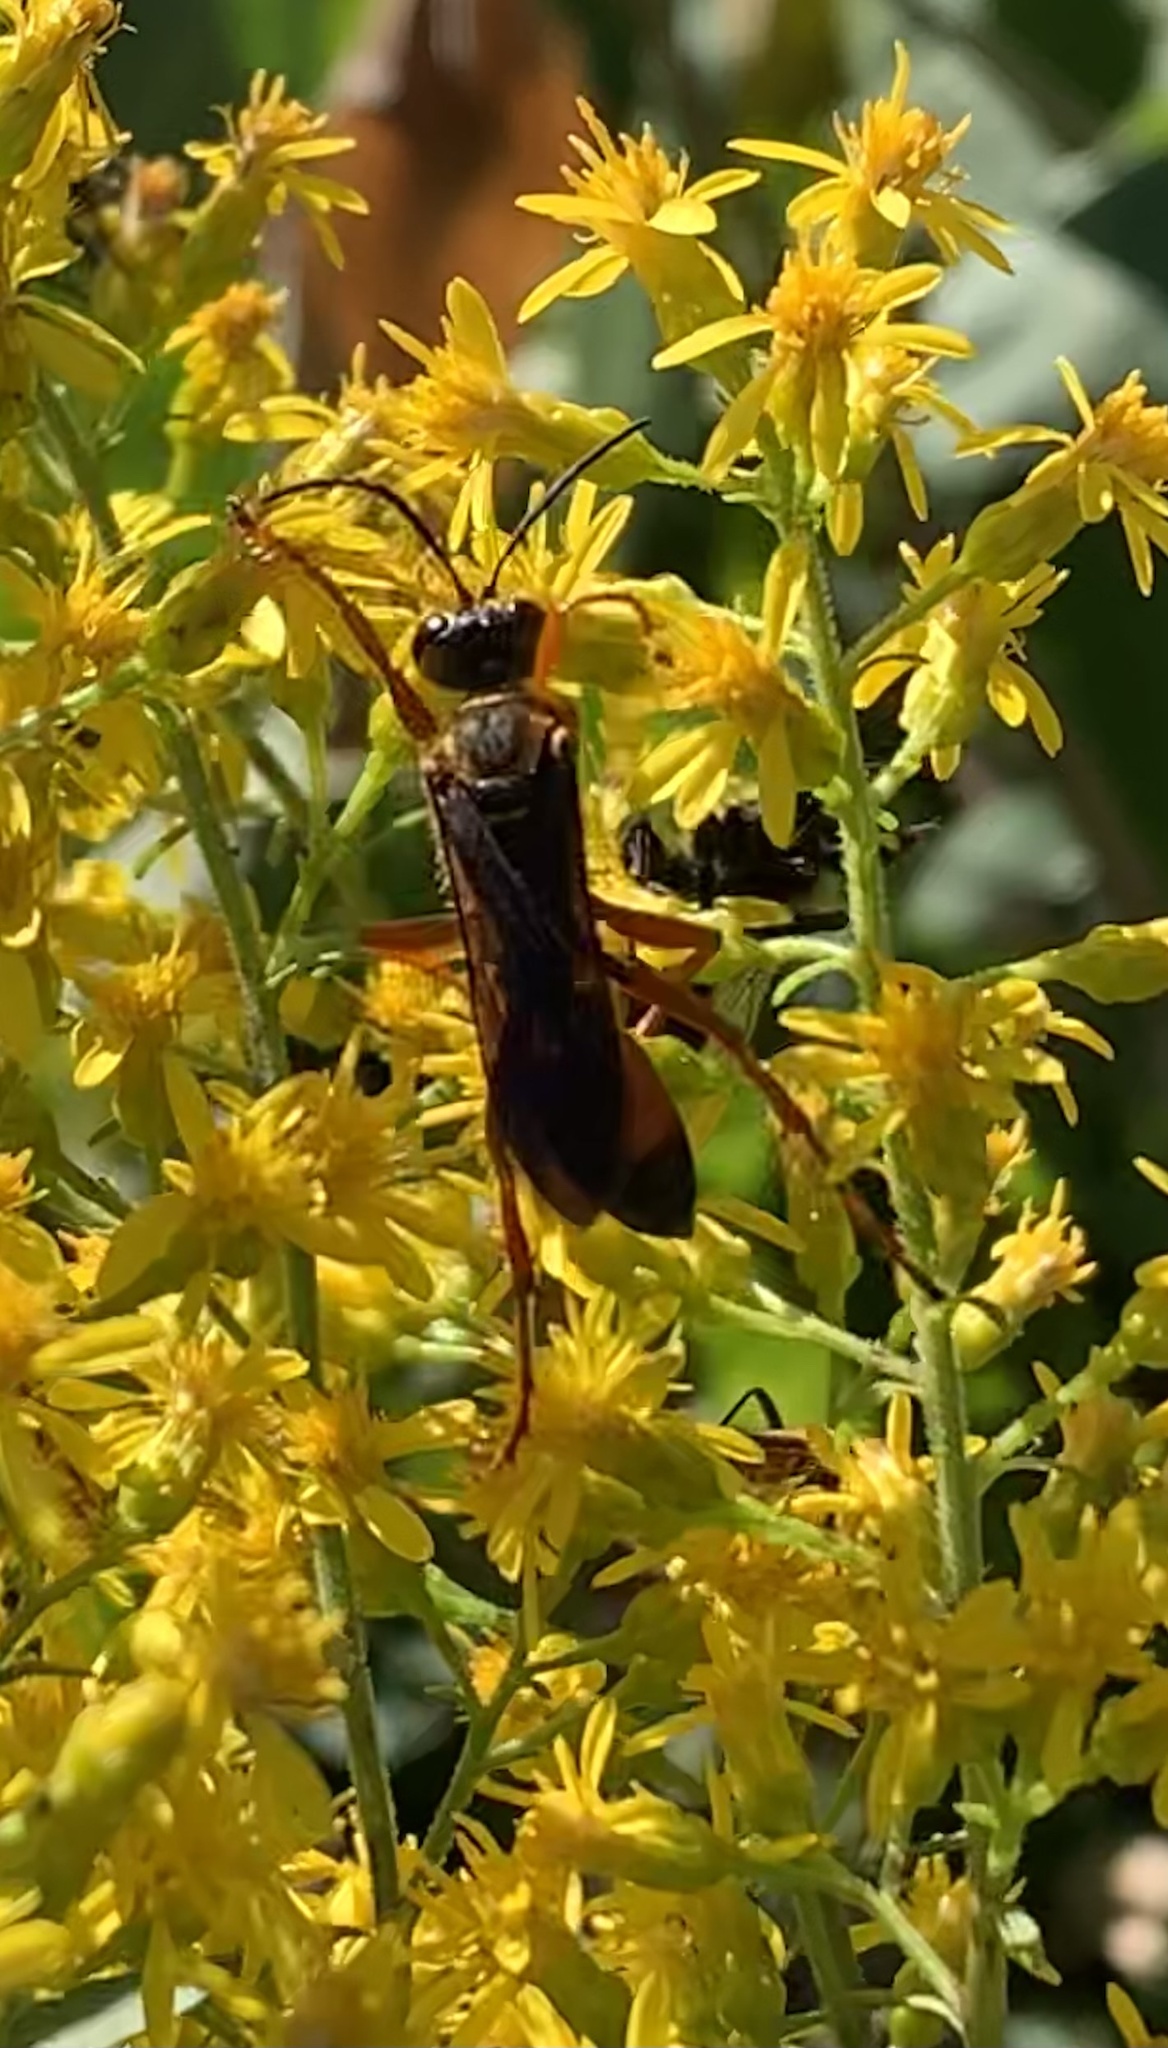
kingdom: Animalia
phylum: Arthropoda
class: Insecta
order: Hymenoptera
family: Sphecidae
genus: Sphex
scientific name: Sphex ichneumoneus
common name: Great golden digger wasp
